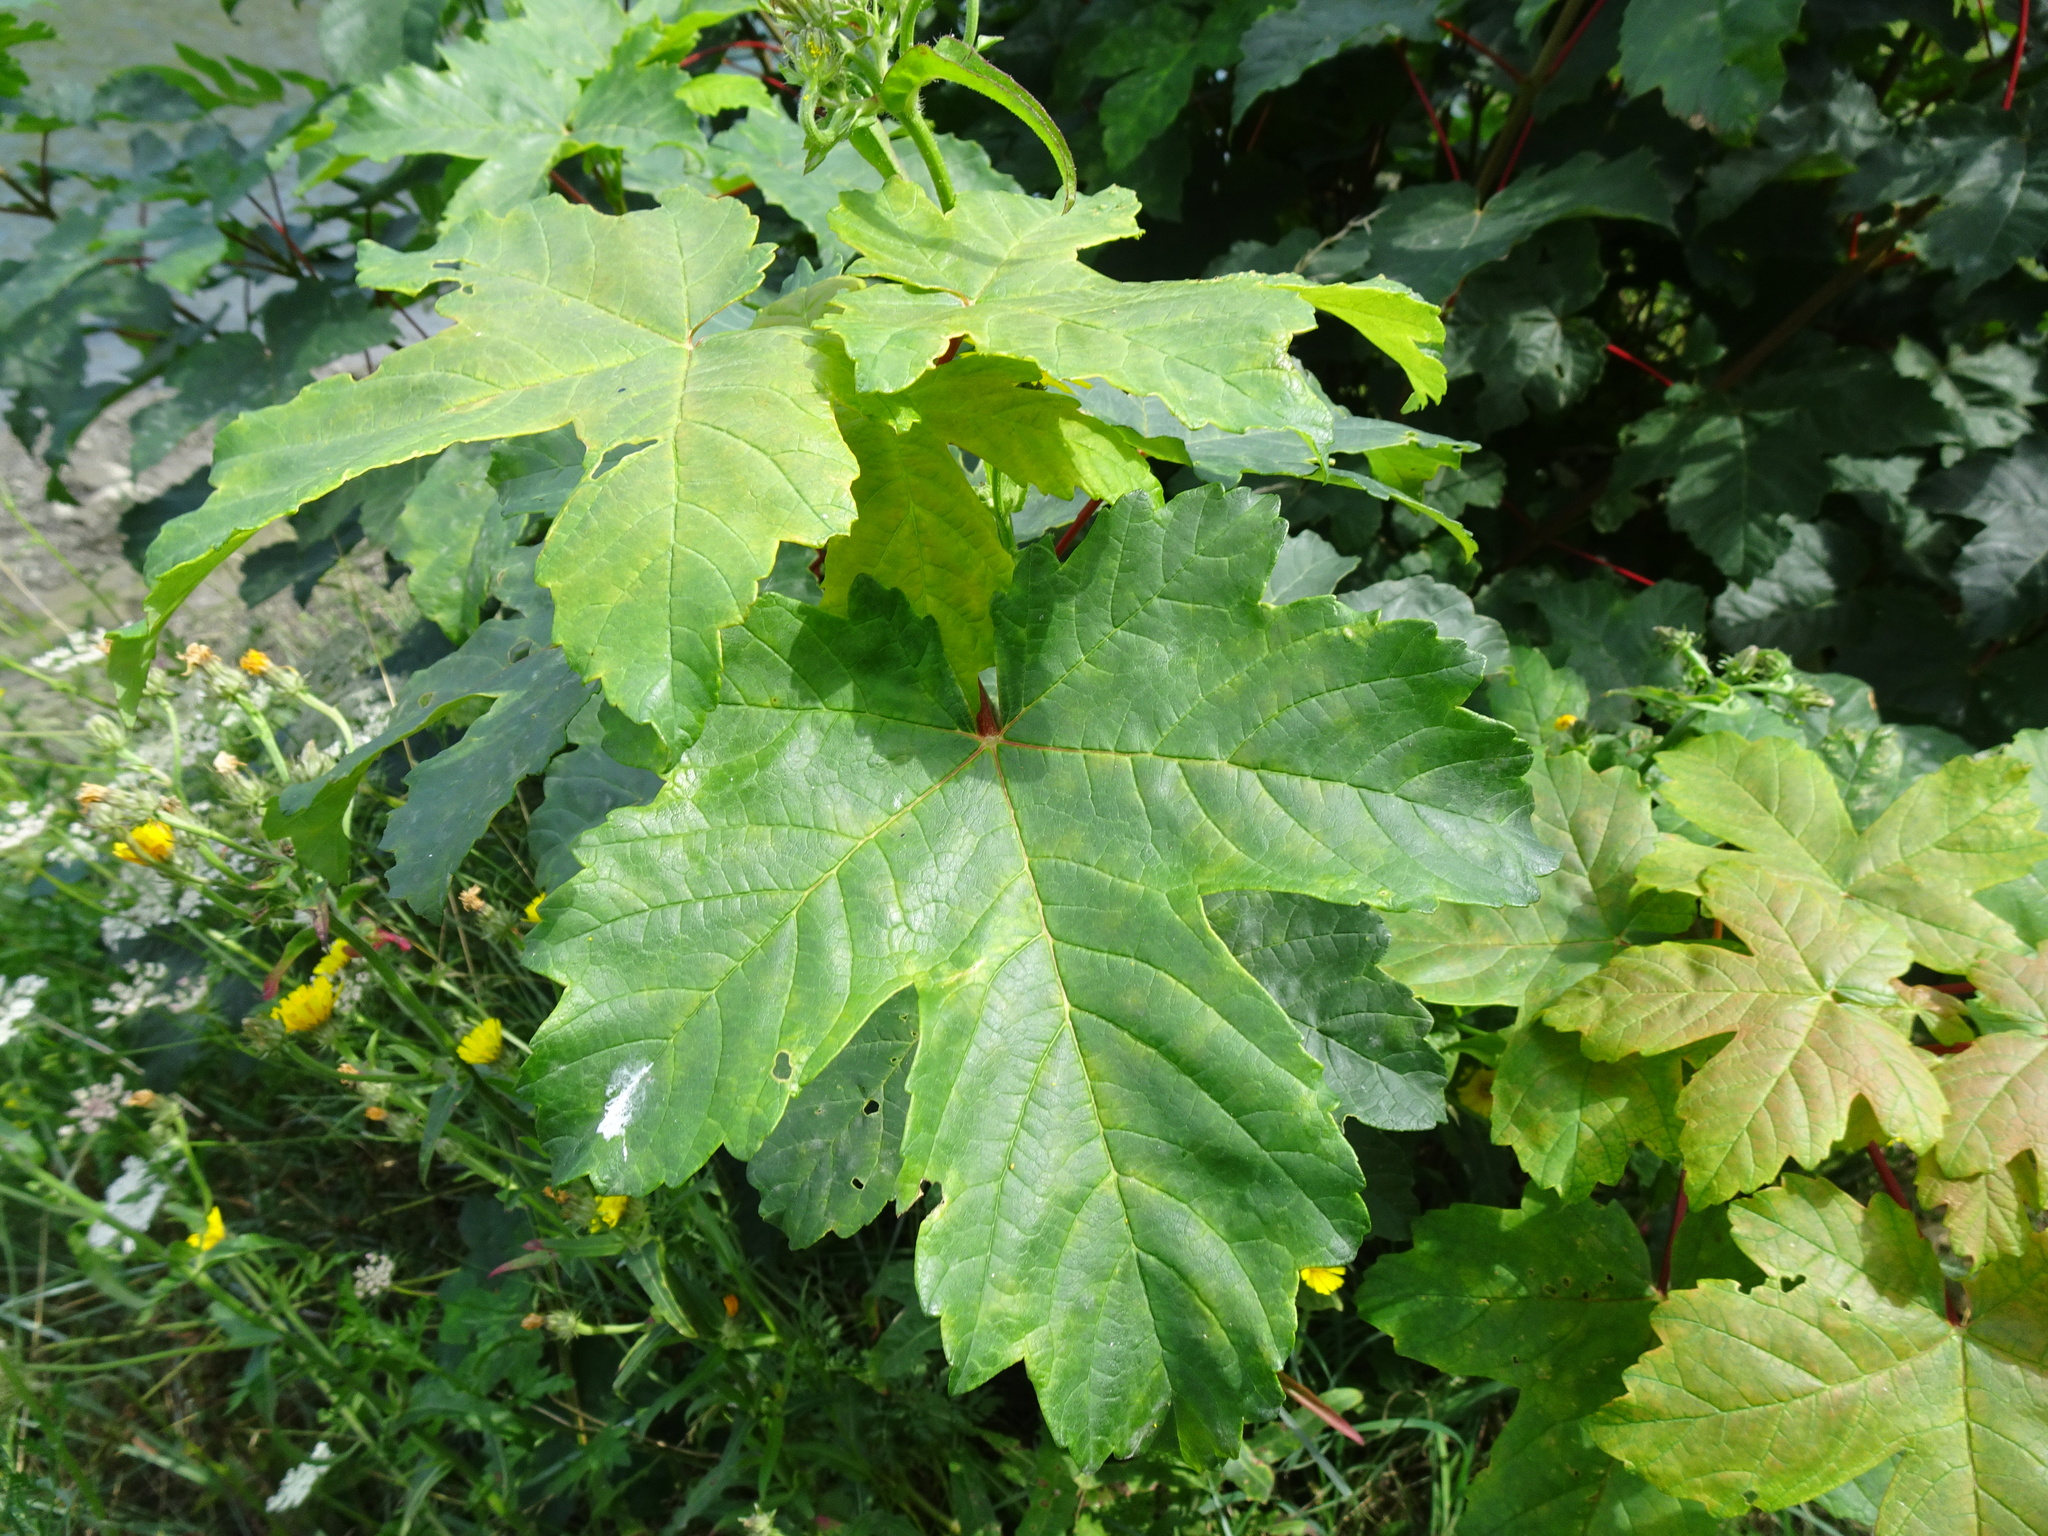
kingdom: Plantae
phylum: Tracheophyta
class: Magnoliopsida
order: Sapindales
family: Sapindaceae
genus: Acer
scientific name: Acer pseudoplatanus
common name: Sycamore
